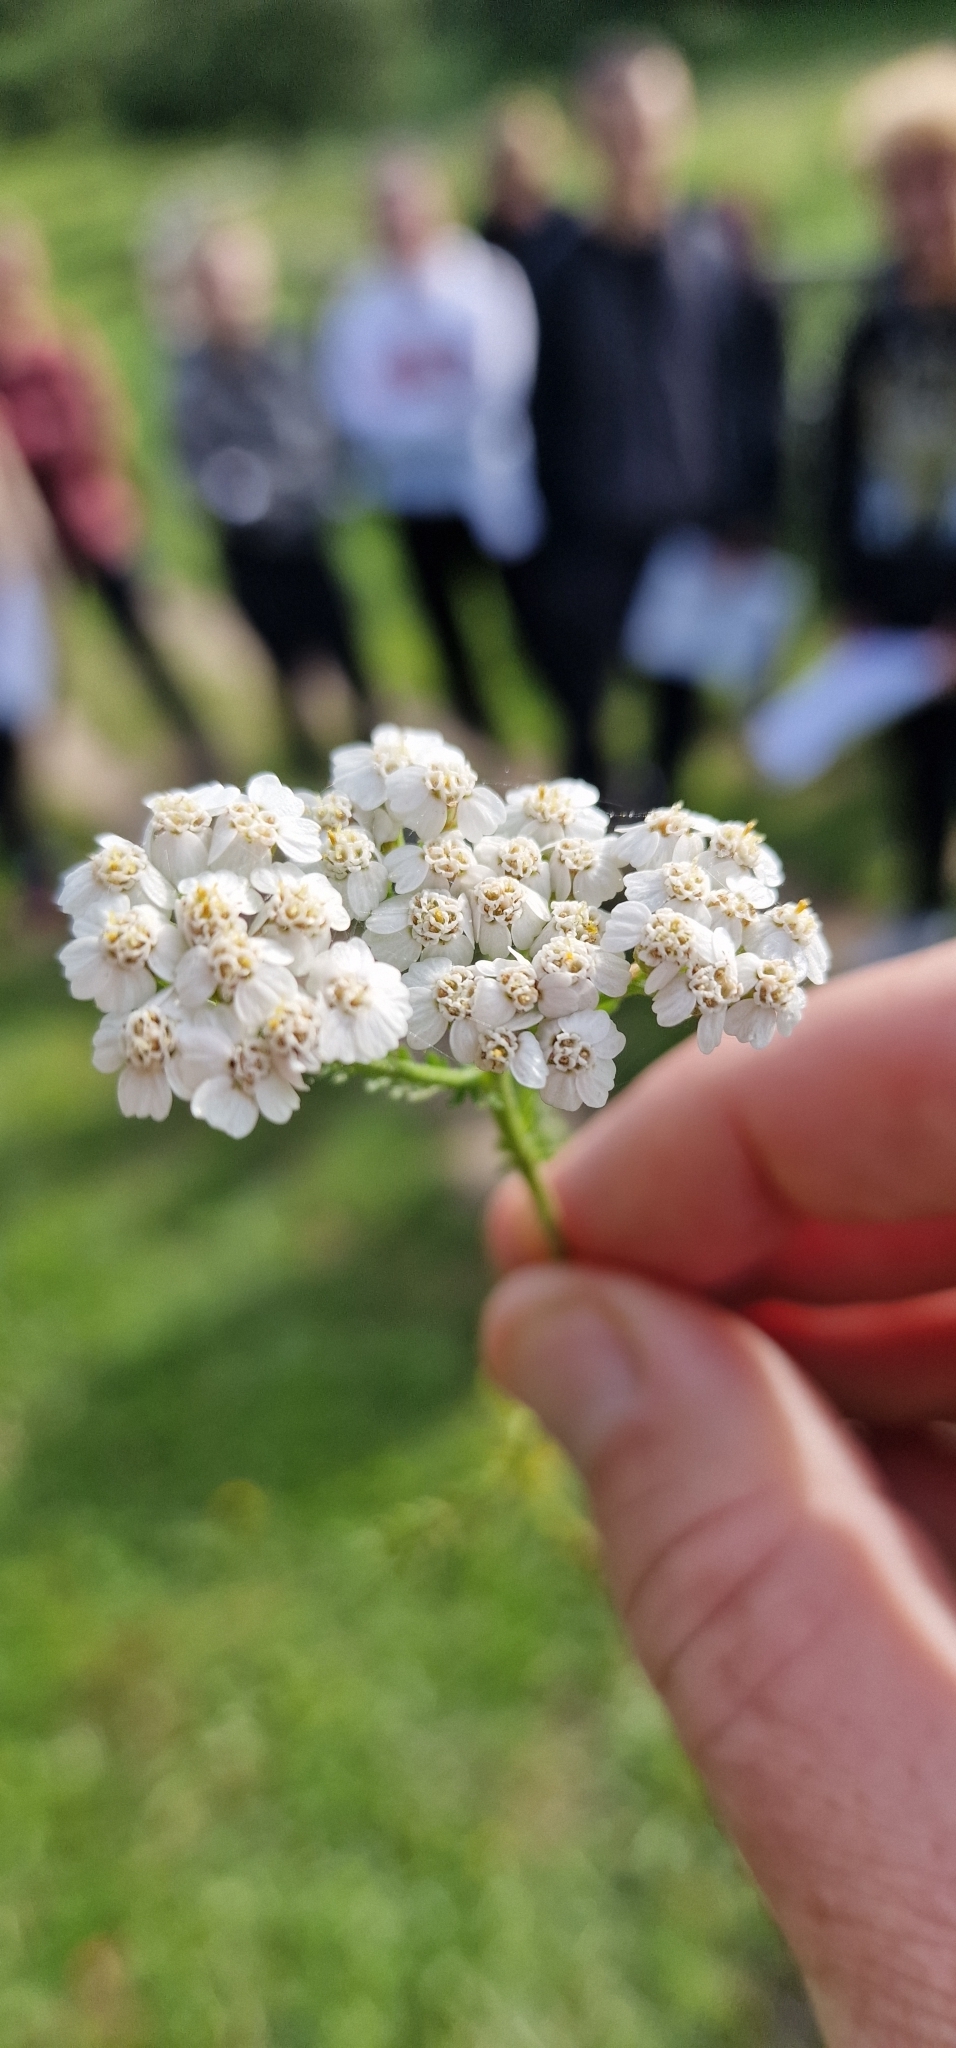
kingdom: Plantae
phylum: Tracheophyta
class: Magnoliopsida
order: Asterales
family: Asteraceae
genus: Achillea
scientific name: Achillea millefolium
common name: Yarrow
